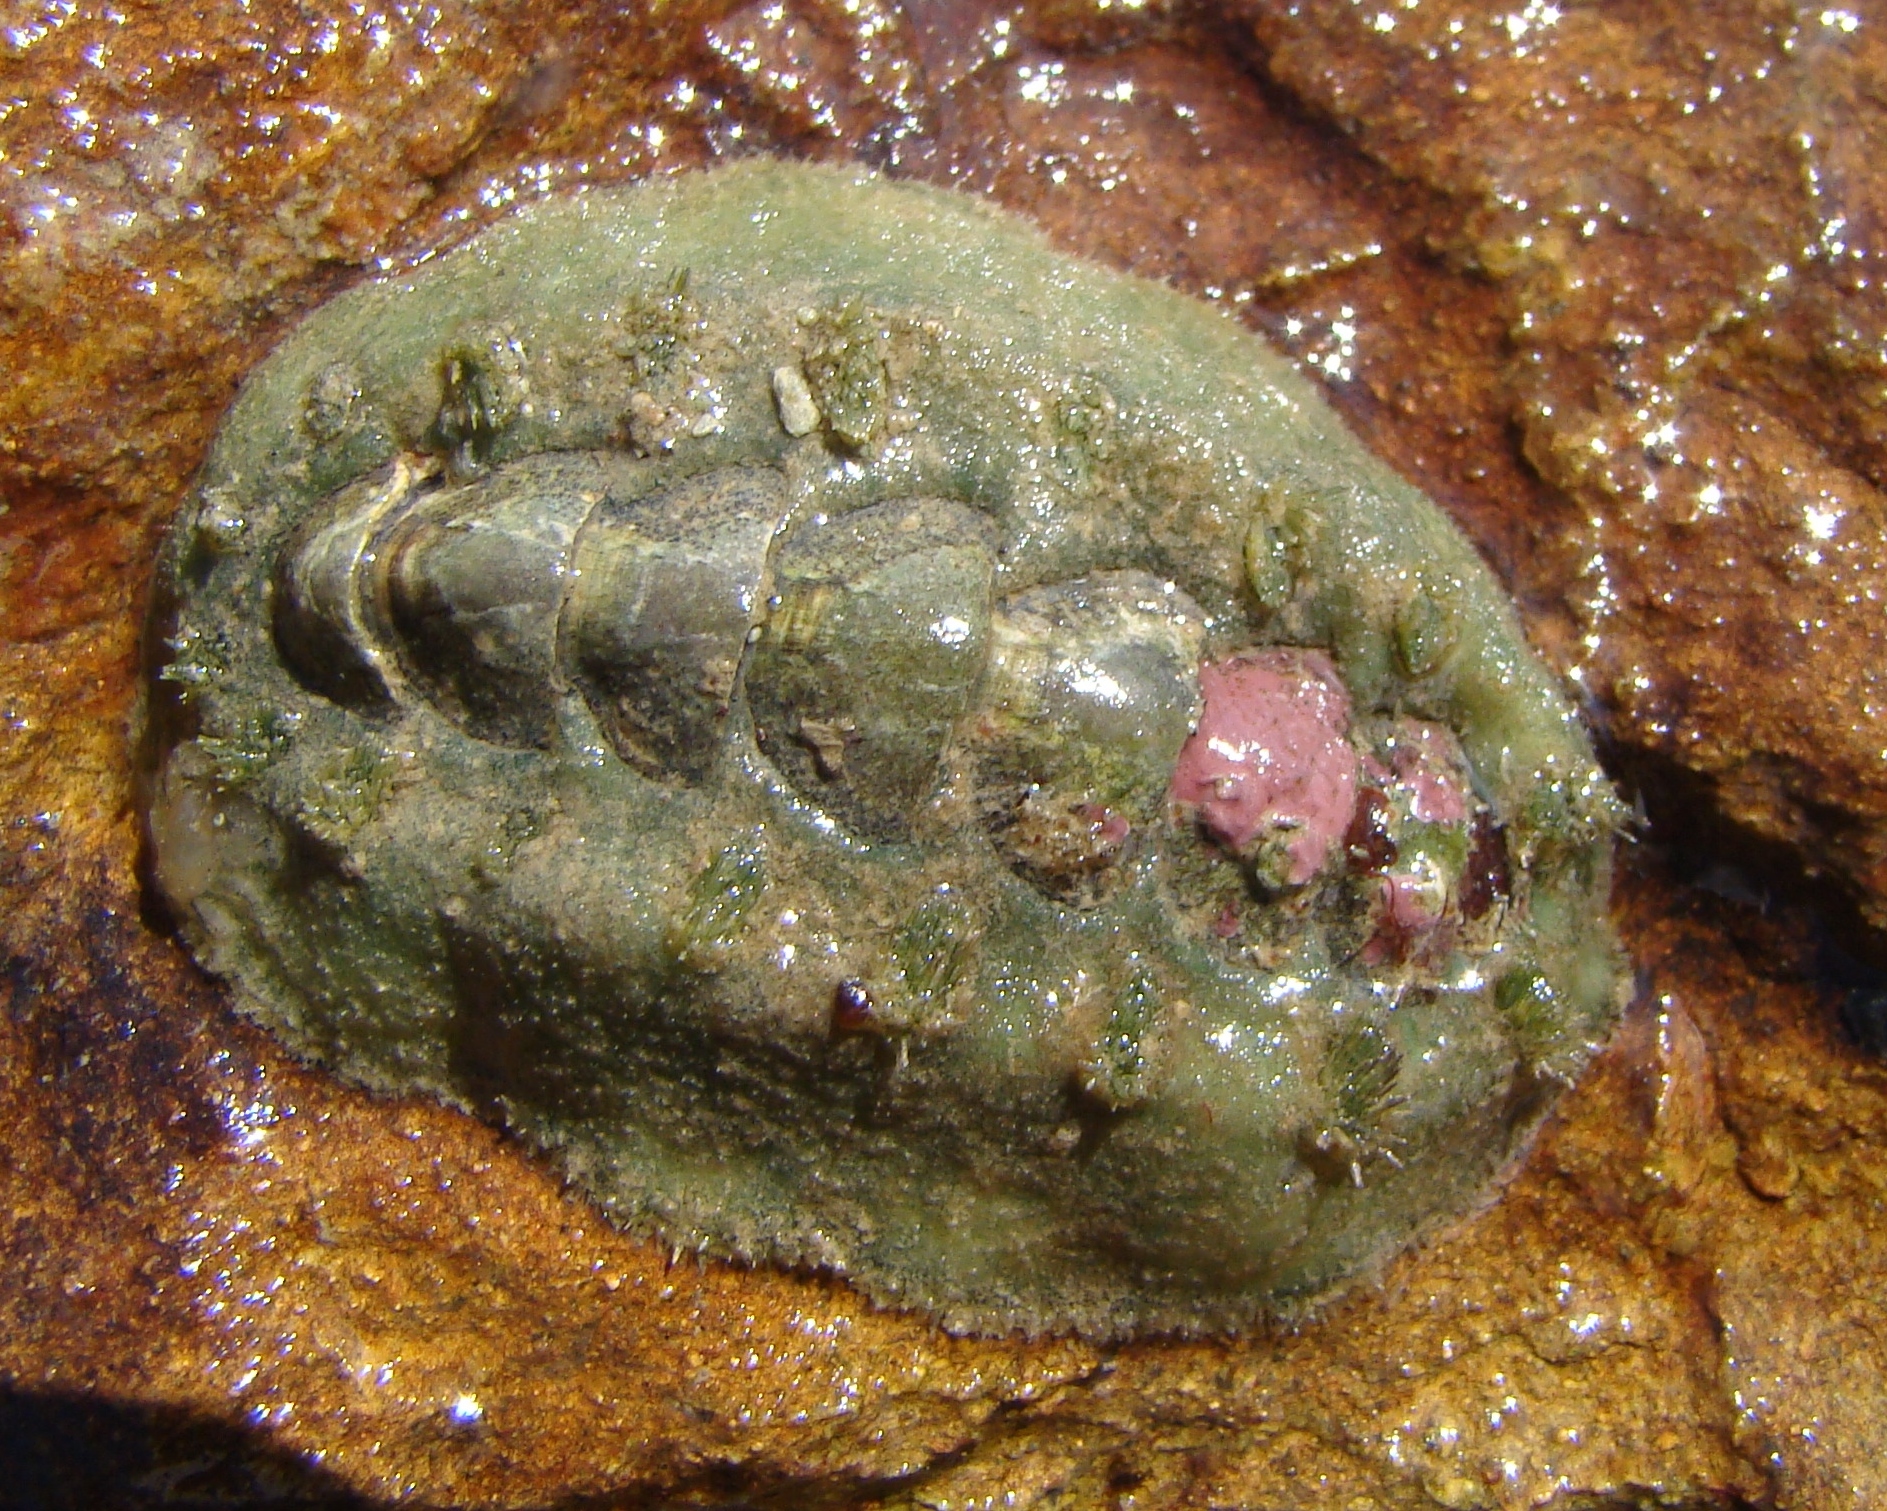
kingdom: Animalia
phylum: Mollusca
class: Polyplacophora
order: Chitonida
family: Acanthochitonidae
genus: Notoplax
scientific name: Notoplax mariae
